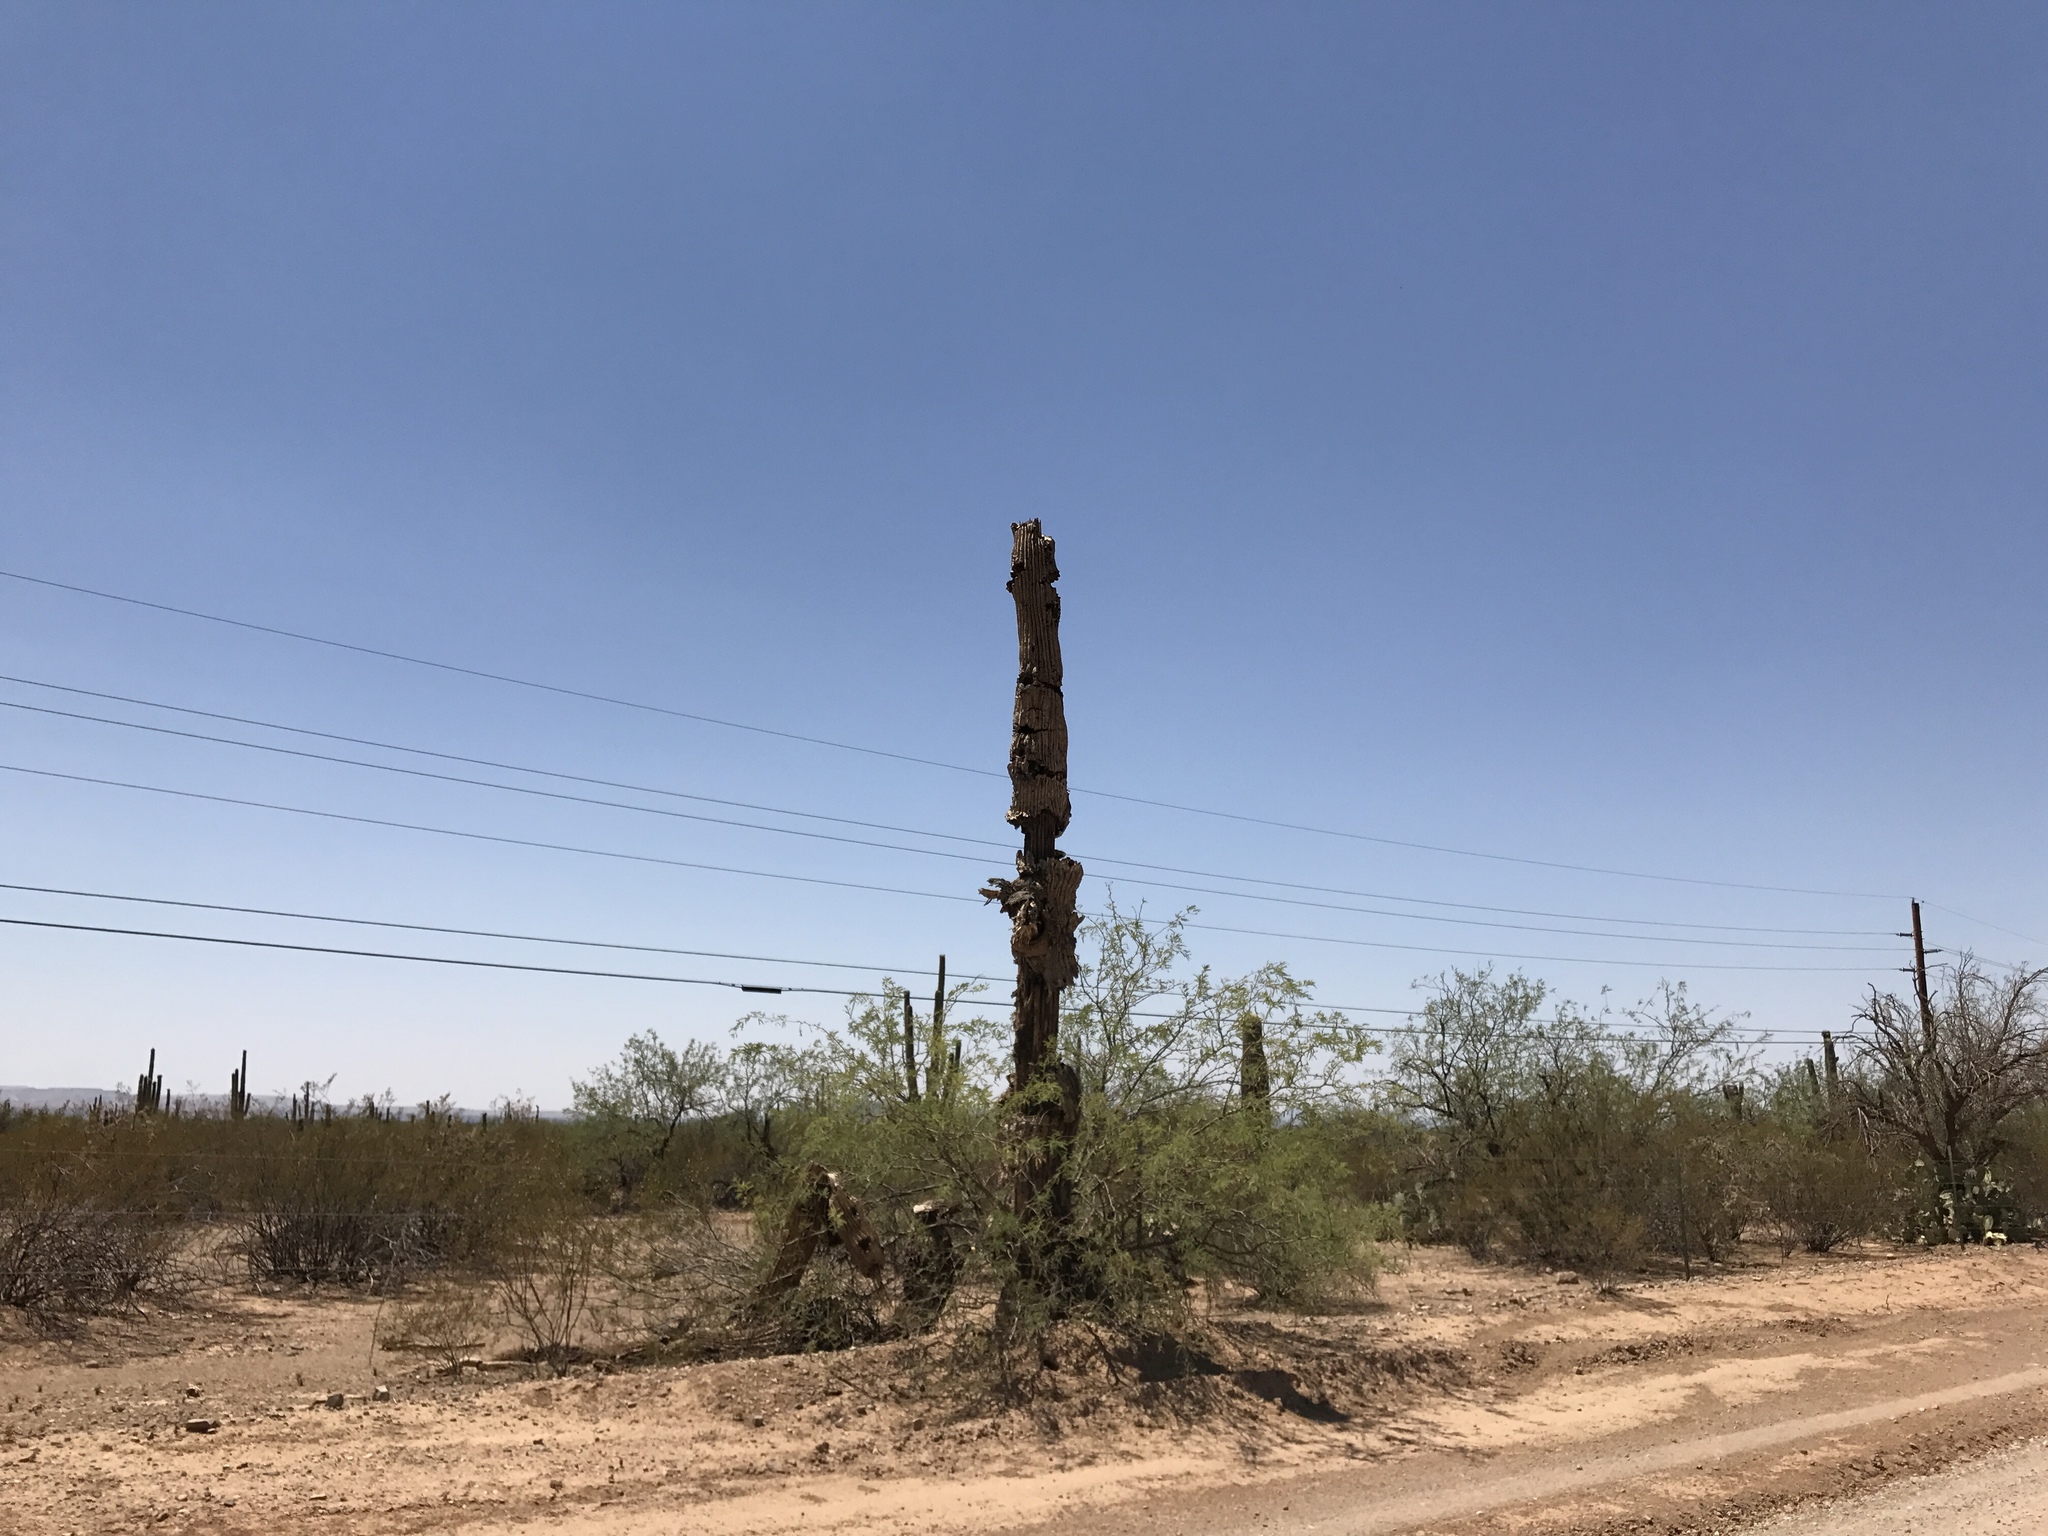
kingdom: Plantae
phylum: Tracheophyta
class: Magnoliopsida
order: Caryophyllales
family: Cactaceae
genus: Carnegiea
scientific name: Carnegiea gigantea
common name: Saguaro
